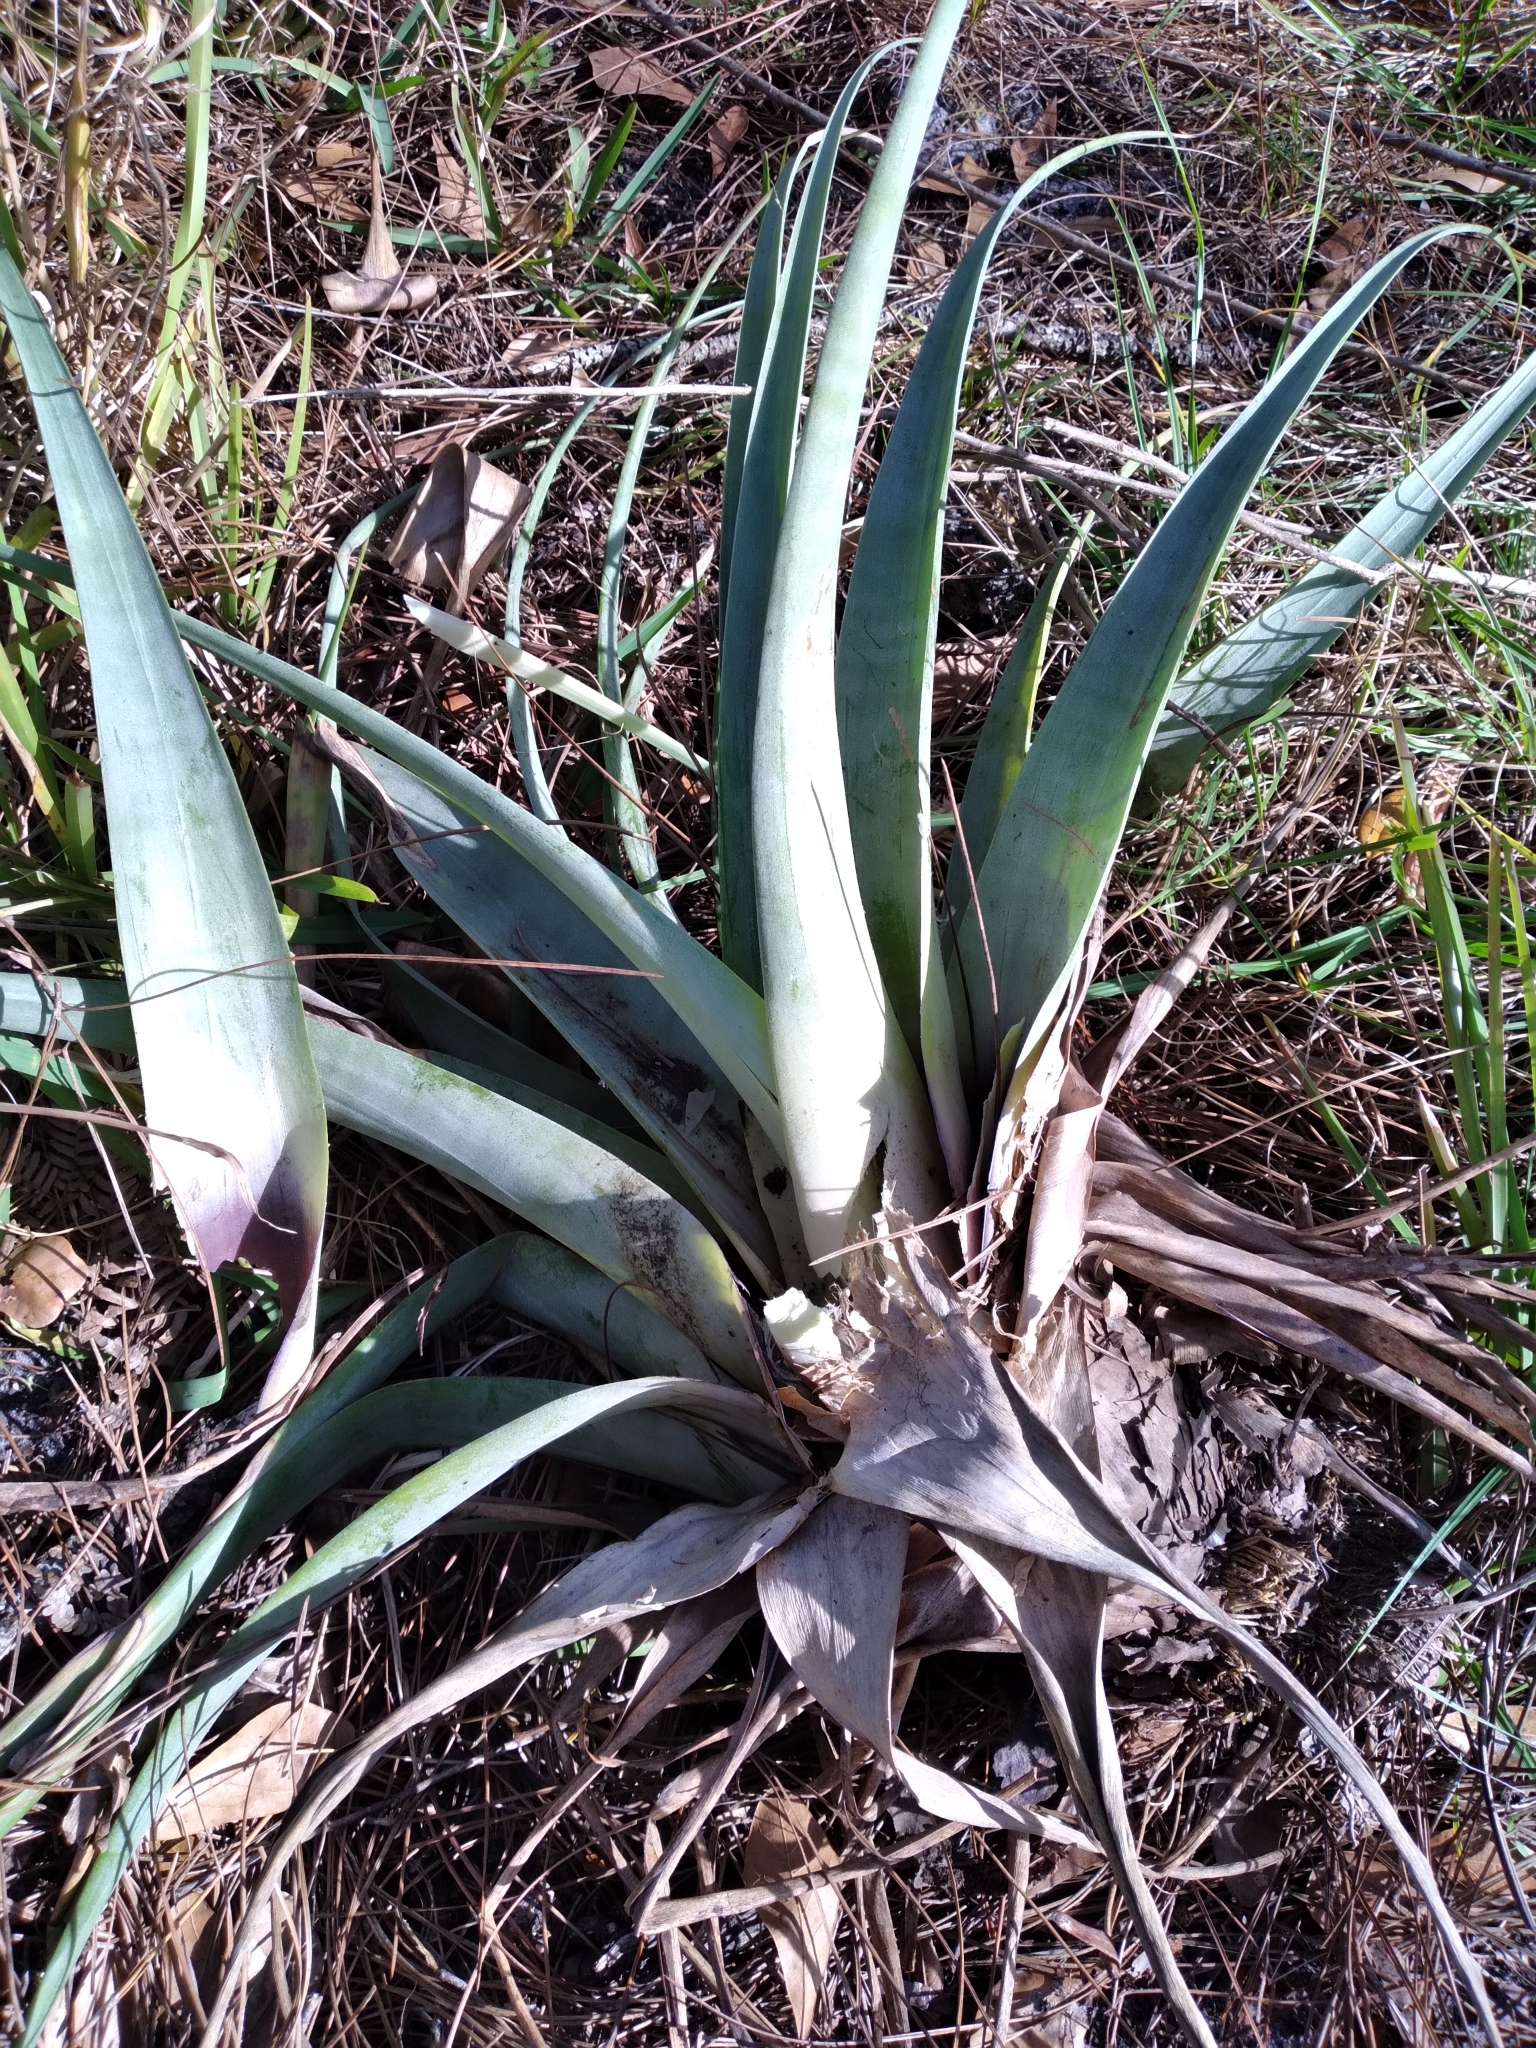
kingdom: Plantae
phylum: Tracheophyta
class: Liliopsida
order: Poales
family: Bromeliaceae
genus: Tillandsia
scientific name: Tillandsia utriculata
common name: Wild pine
